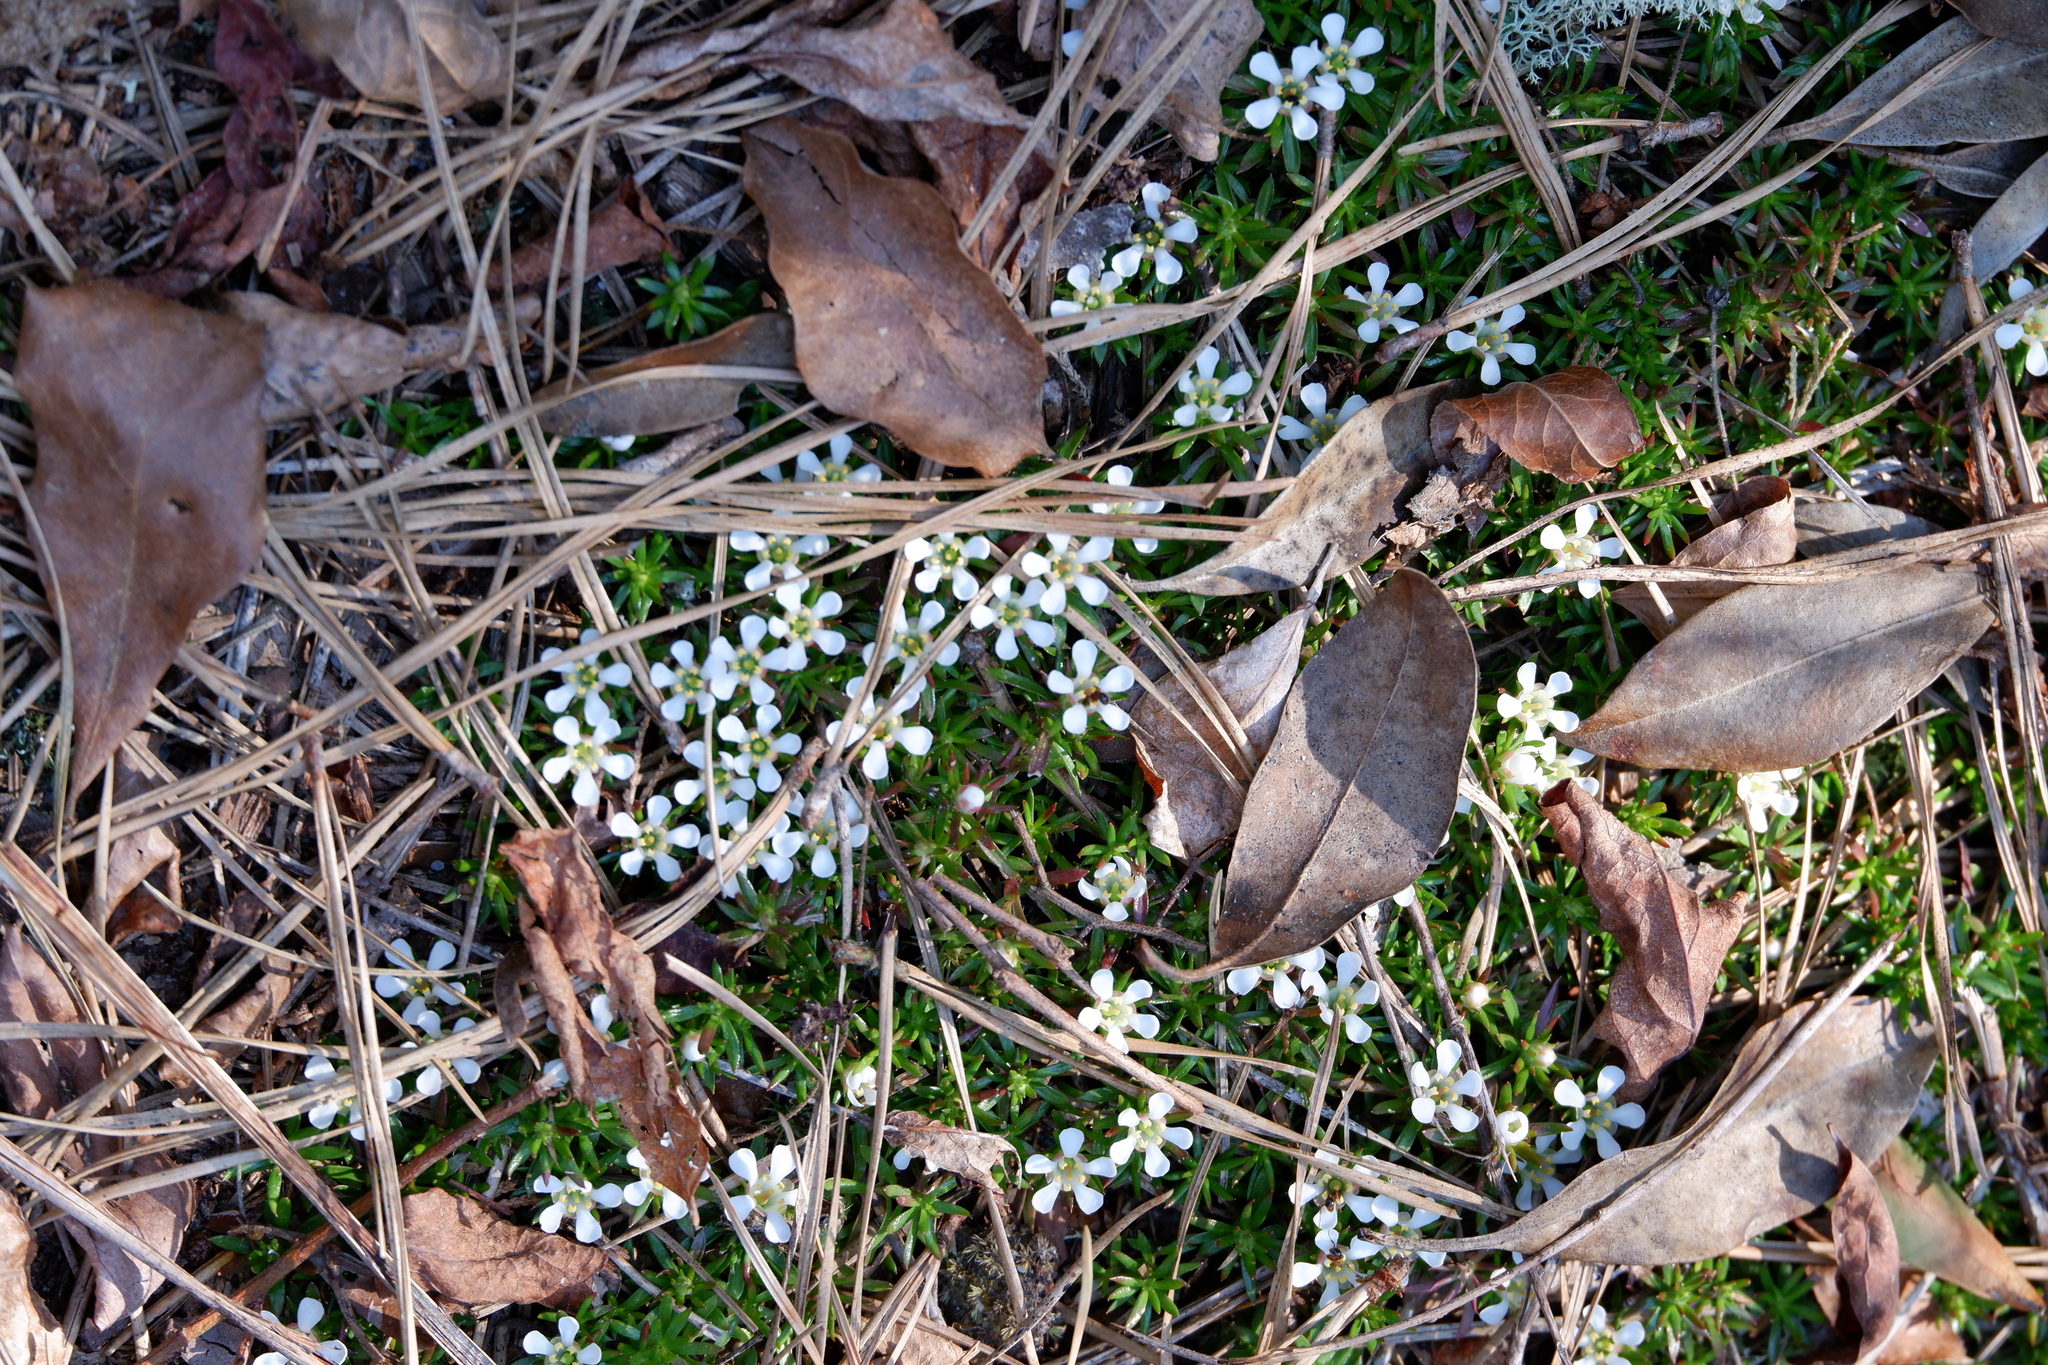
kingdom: Plantae
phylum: Tracheophyta
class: Magnoliopsida
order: Ericales
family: Diapensiaceae
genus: Pyxidanthera
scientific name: Pyxidanthera barbulata
